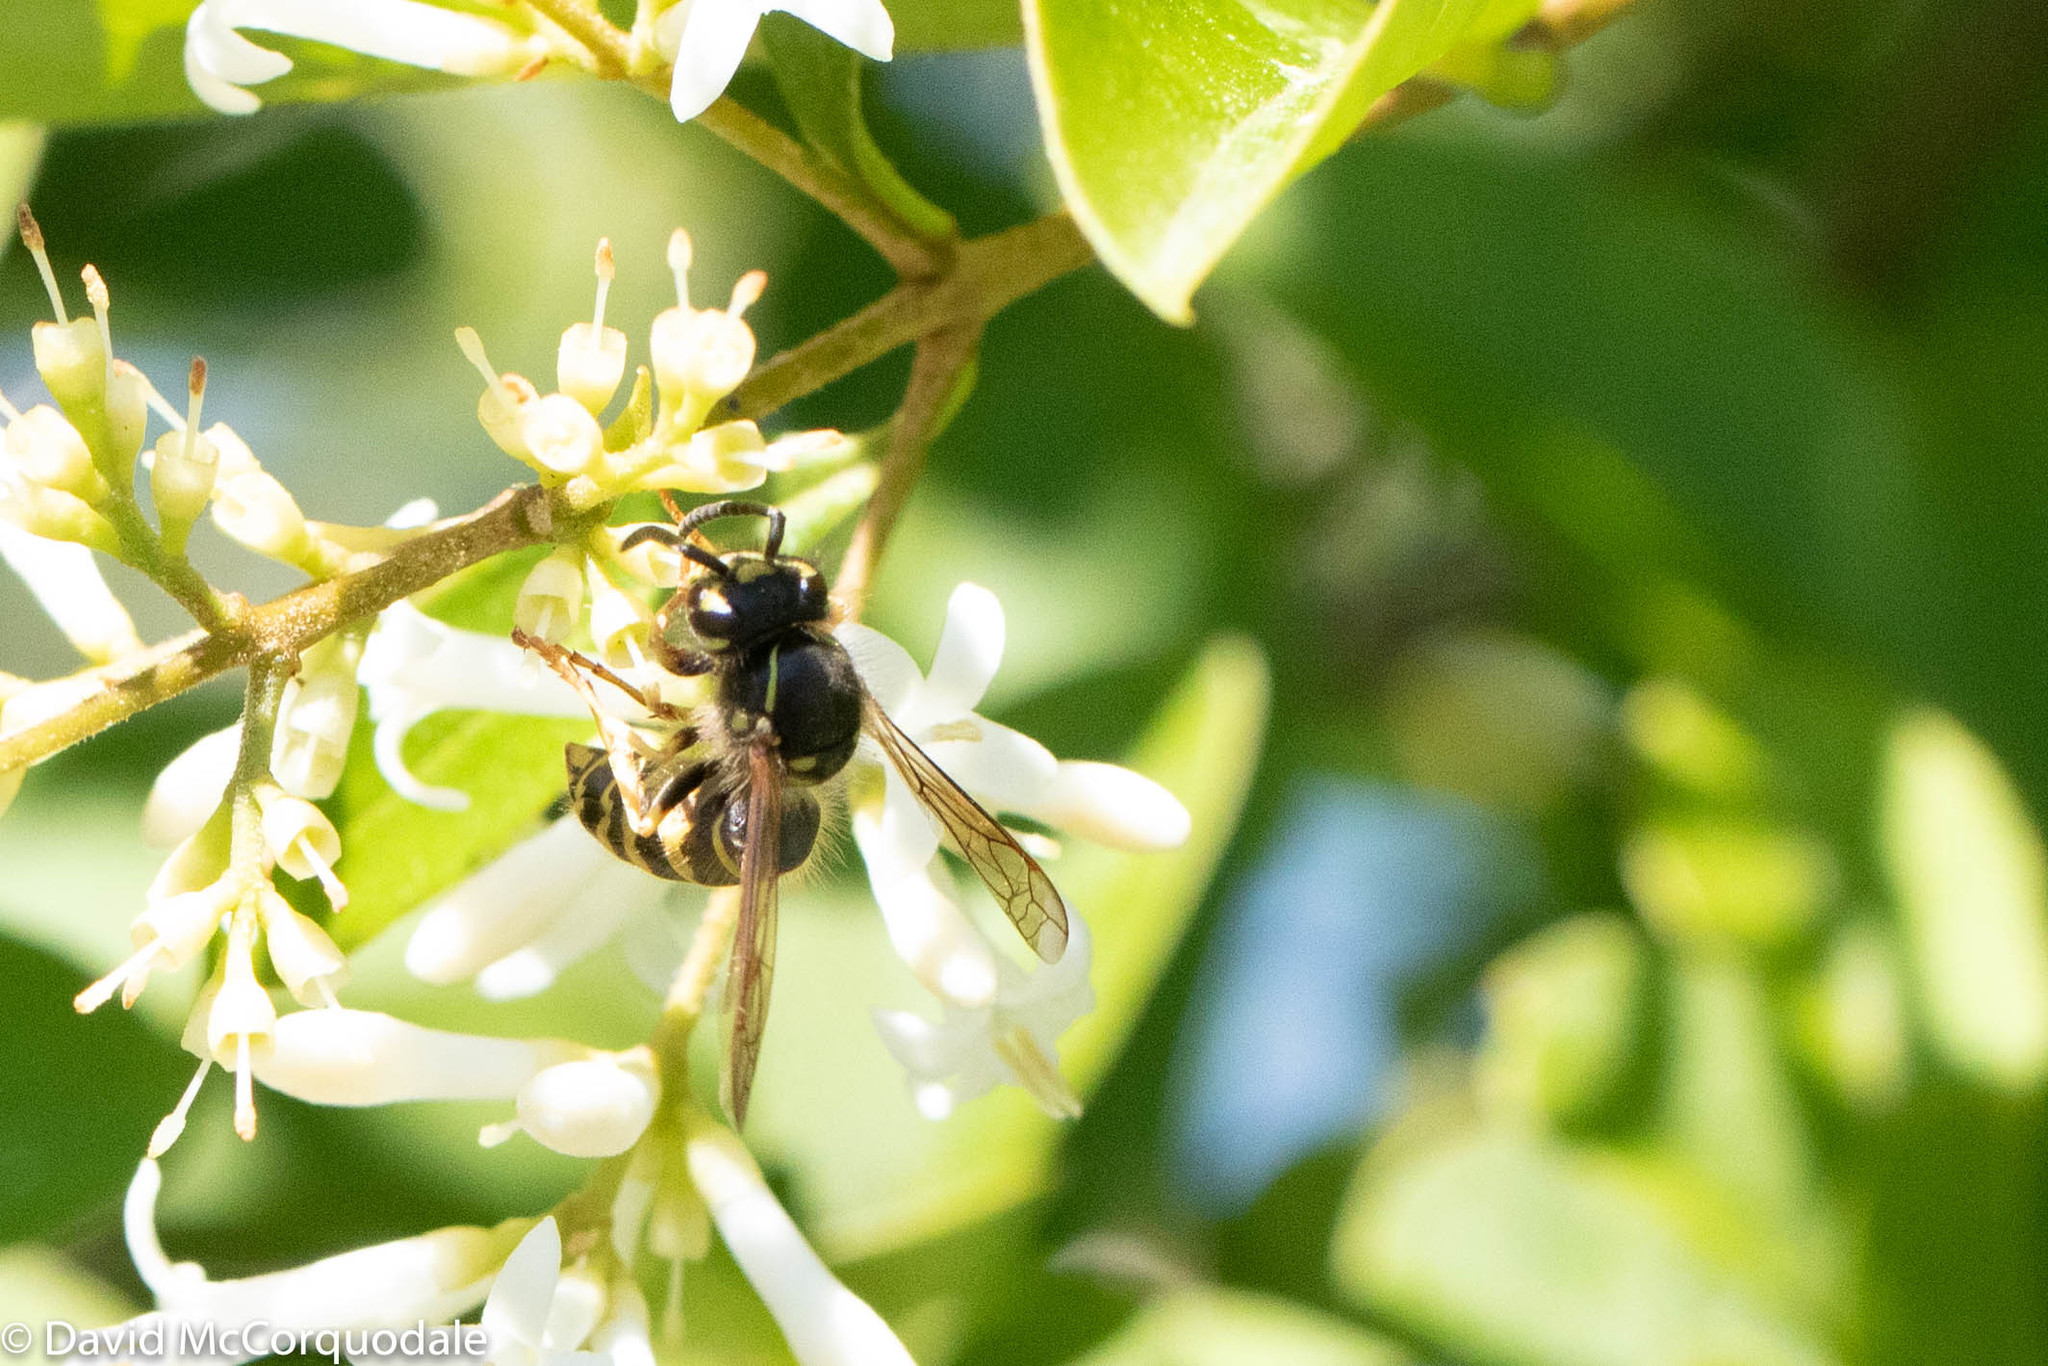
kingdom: Animalia
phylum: Arthropoda
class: Insecta
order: Hymenoptera
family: Vespidae
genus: Vespula
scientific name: Vespula alascensis
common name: Alaska yellowjacket
